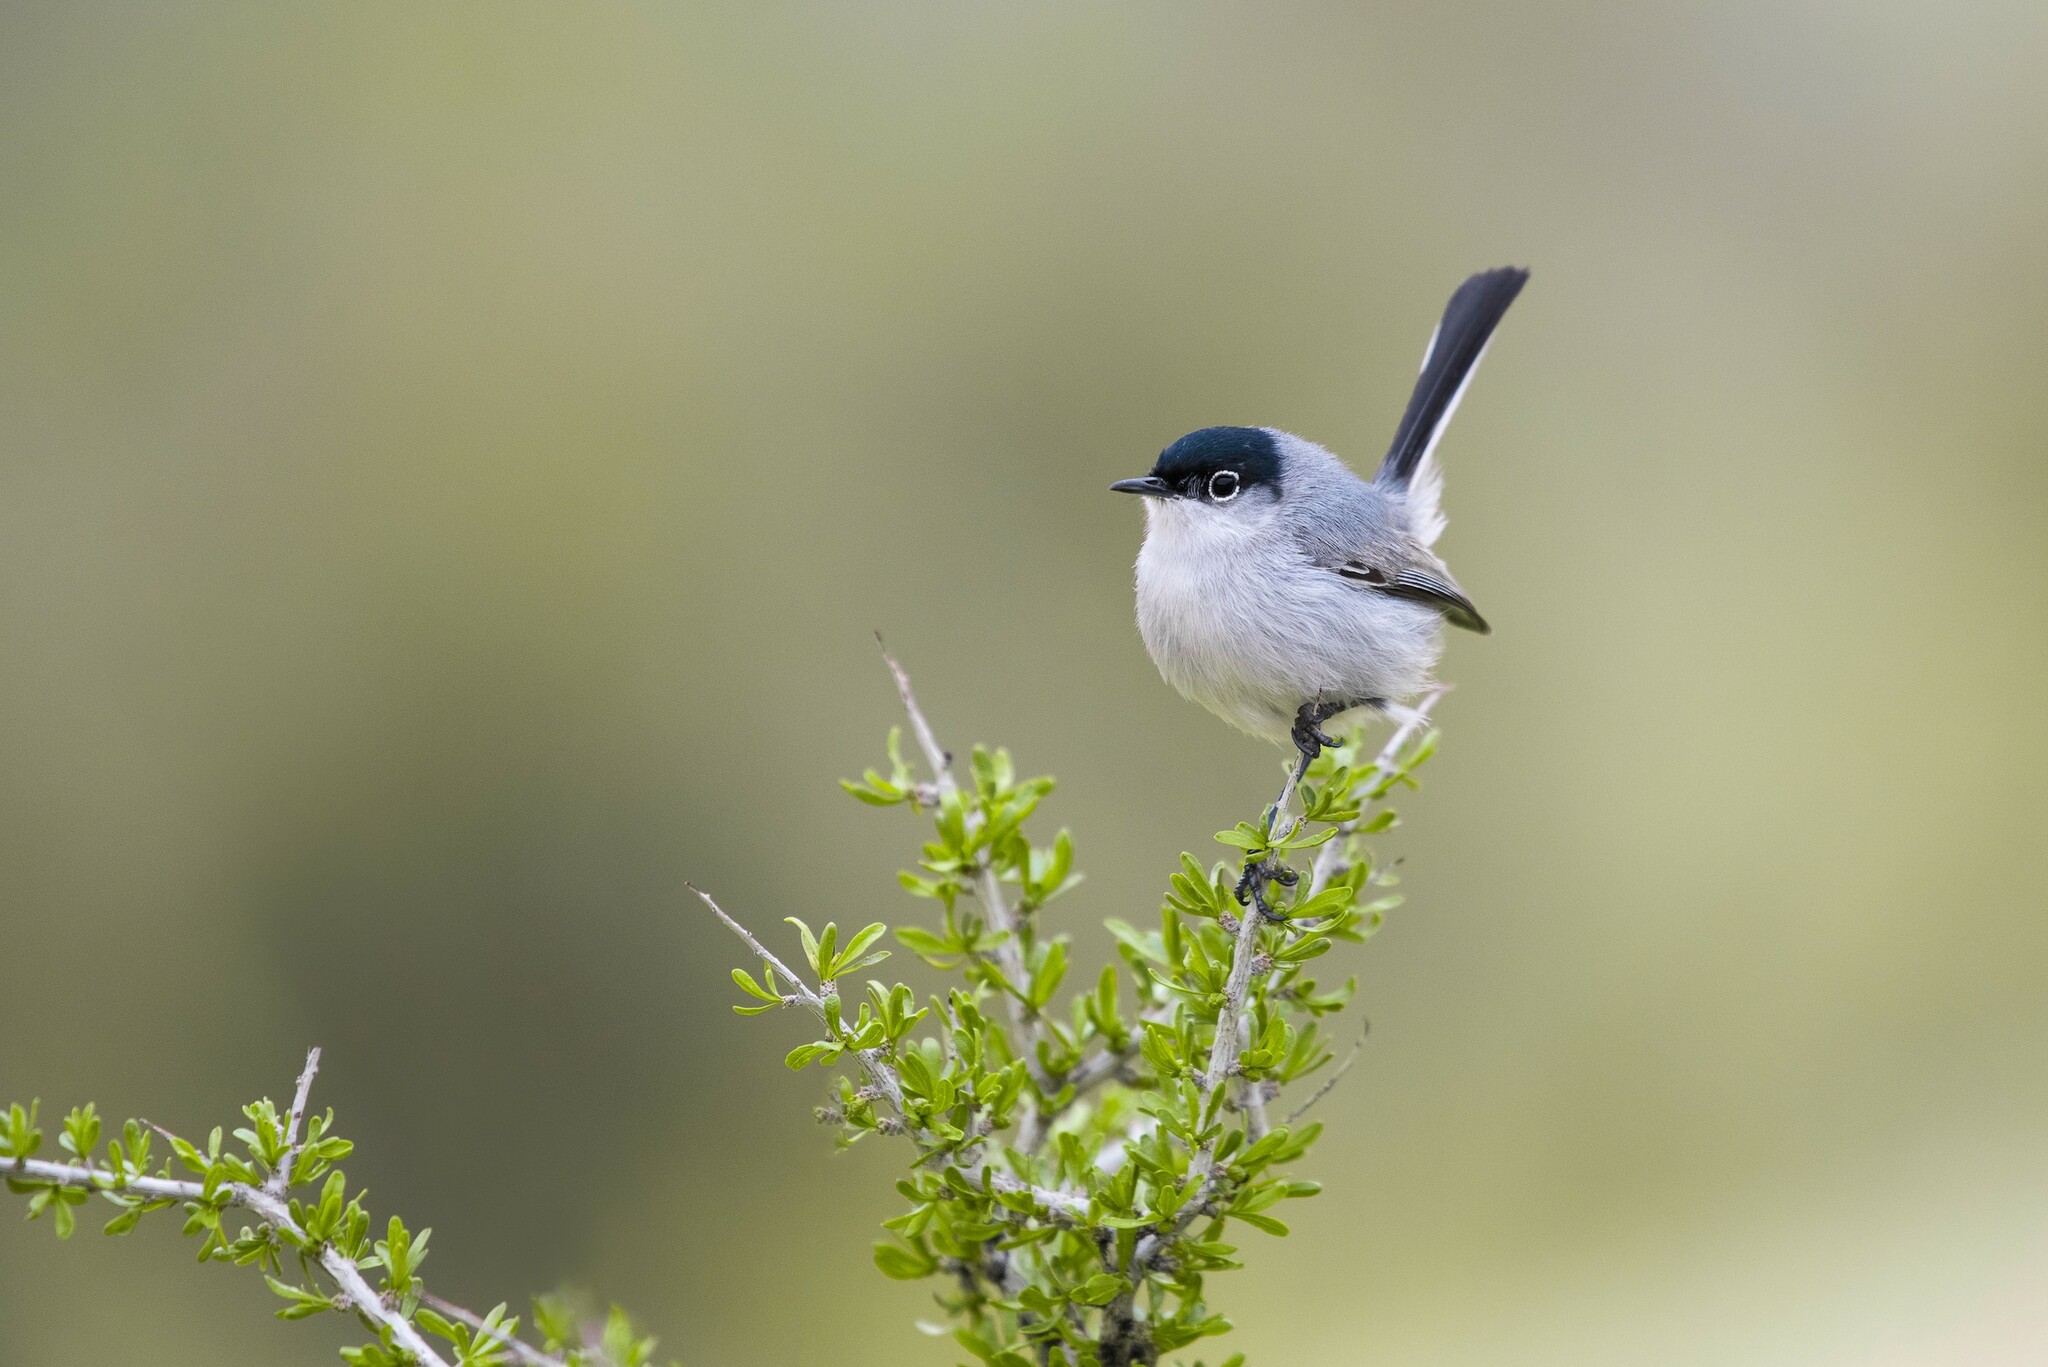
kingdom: Animalia
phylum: Chordata
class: Aves
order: Passeriformes
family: Polioptilidae
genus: Polioptila
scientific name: Polioptila melanura
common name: Black-tailed gnatcatcher
